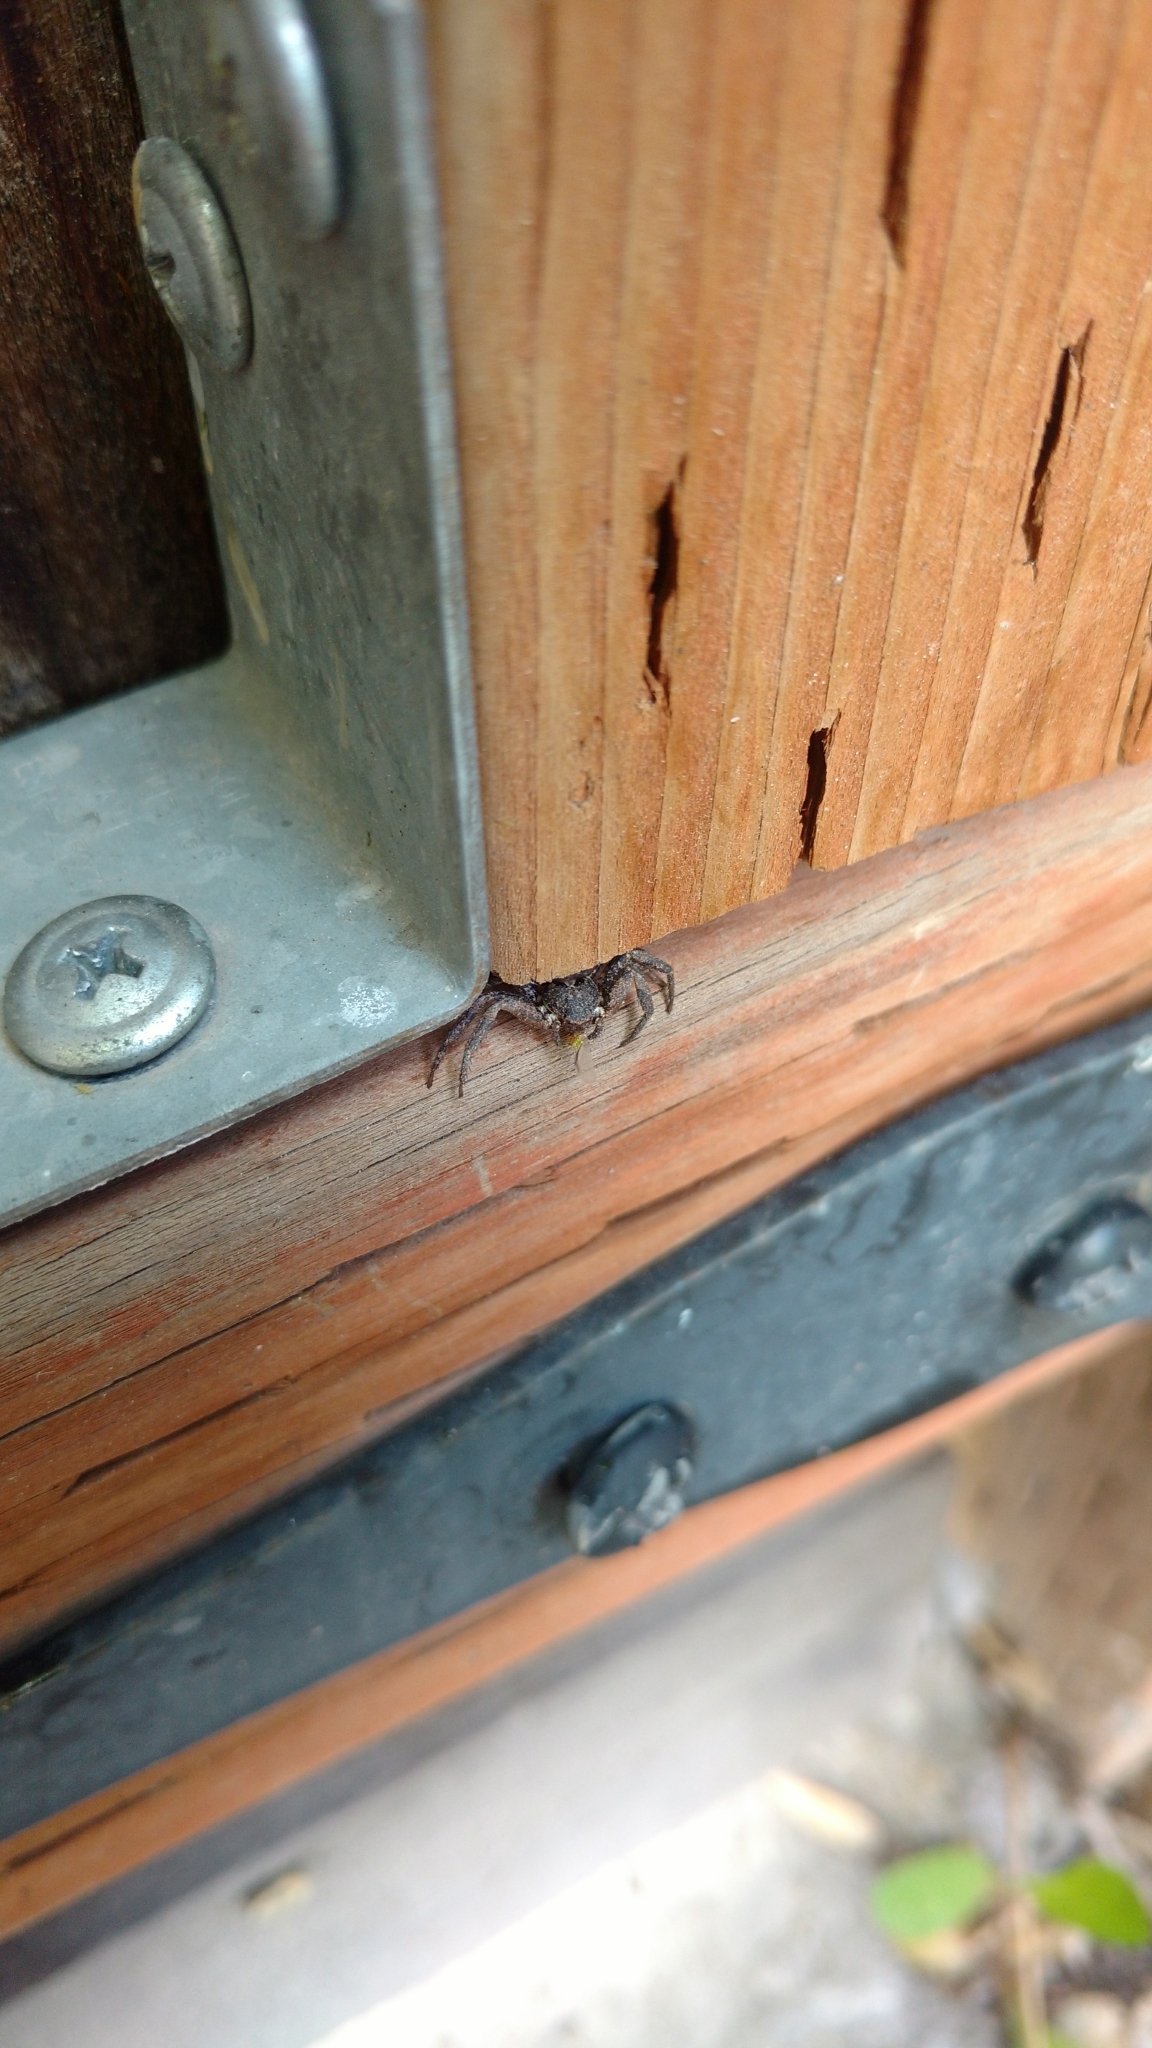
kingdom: Animalia
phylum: Arthropoda
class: Arachnida
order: Araneae
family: Thomisidae
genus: Bassaniana
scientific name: Bassaniana utahensis
